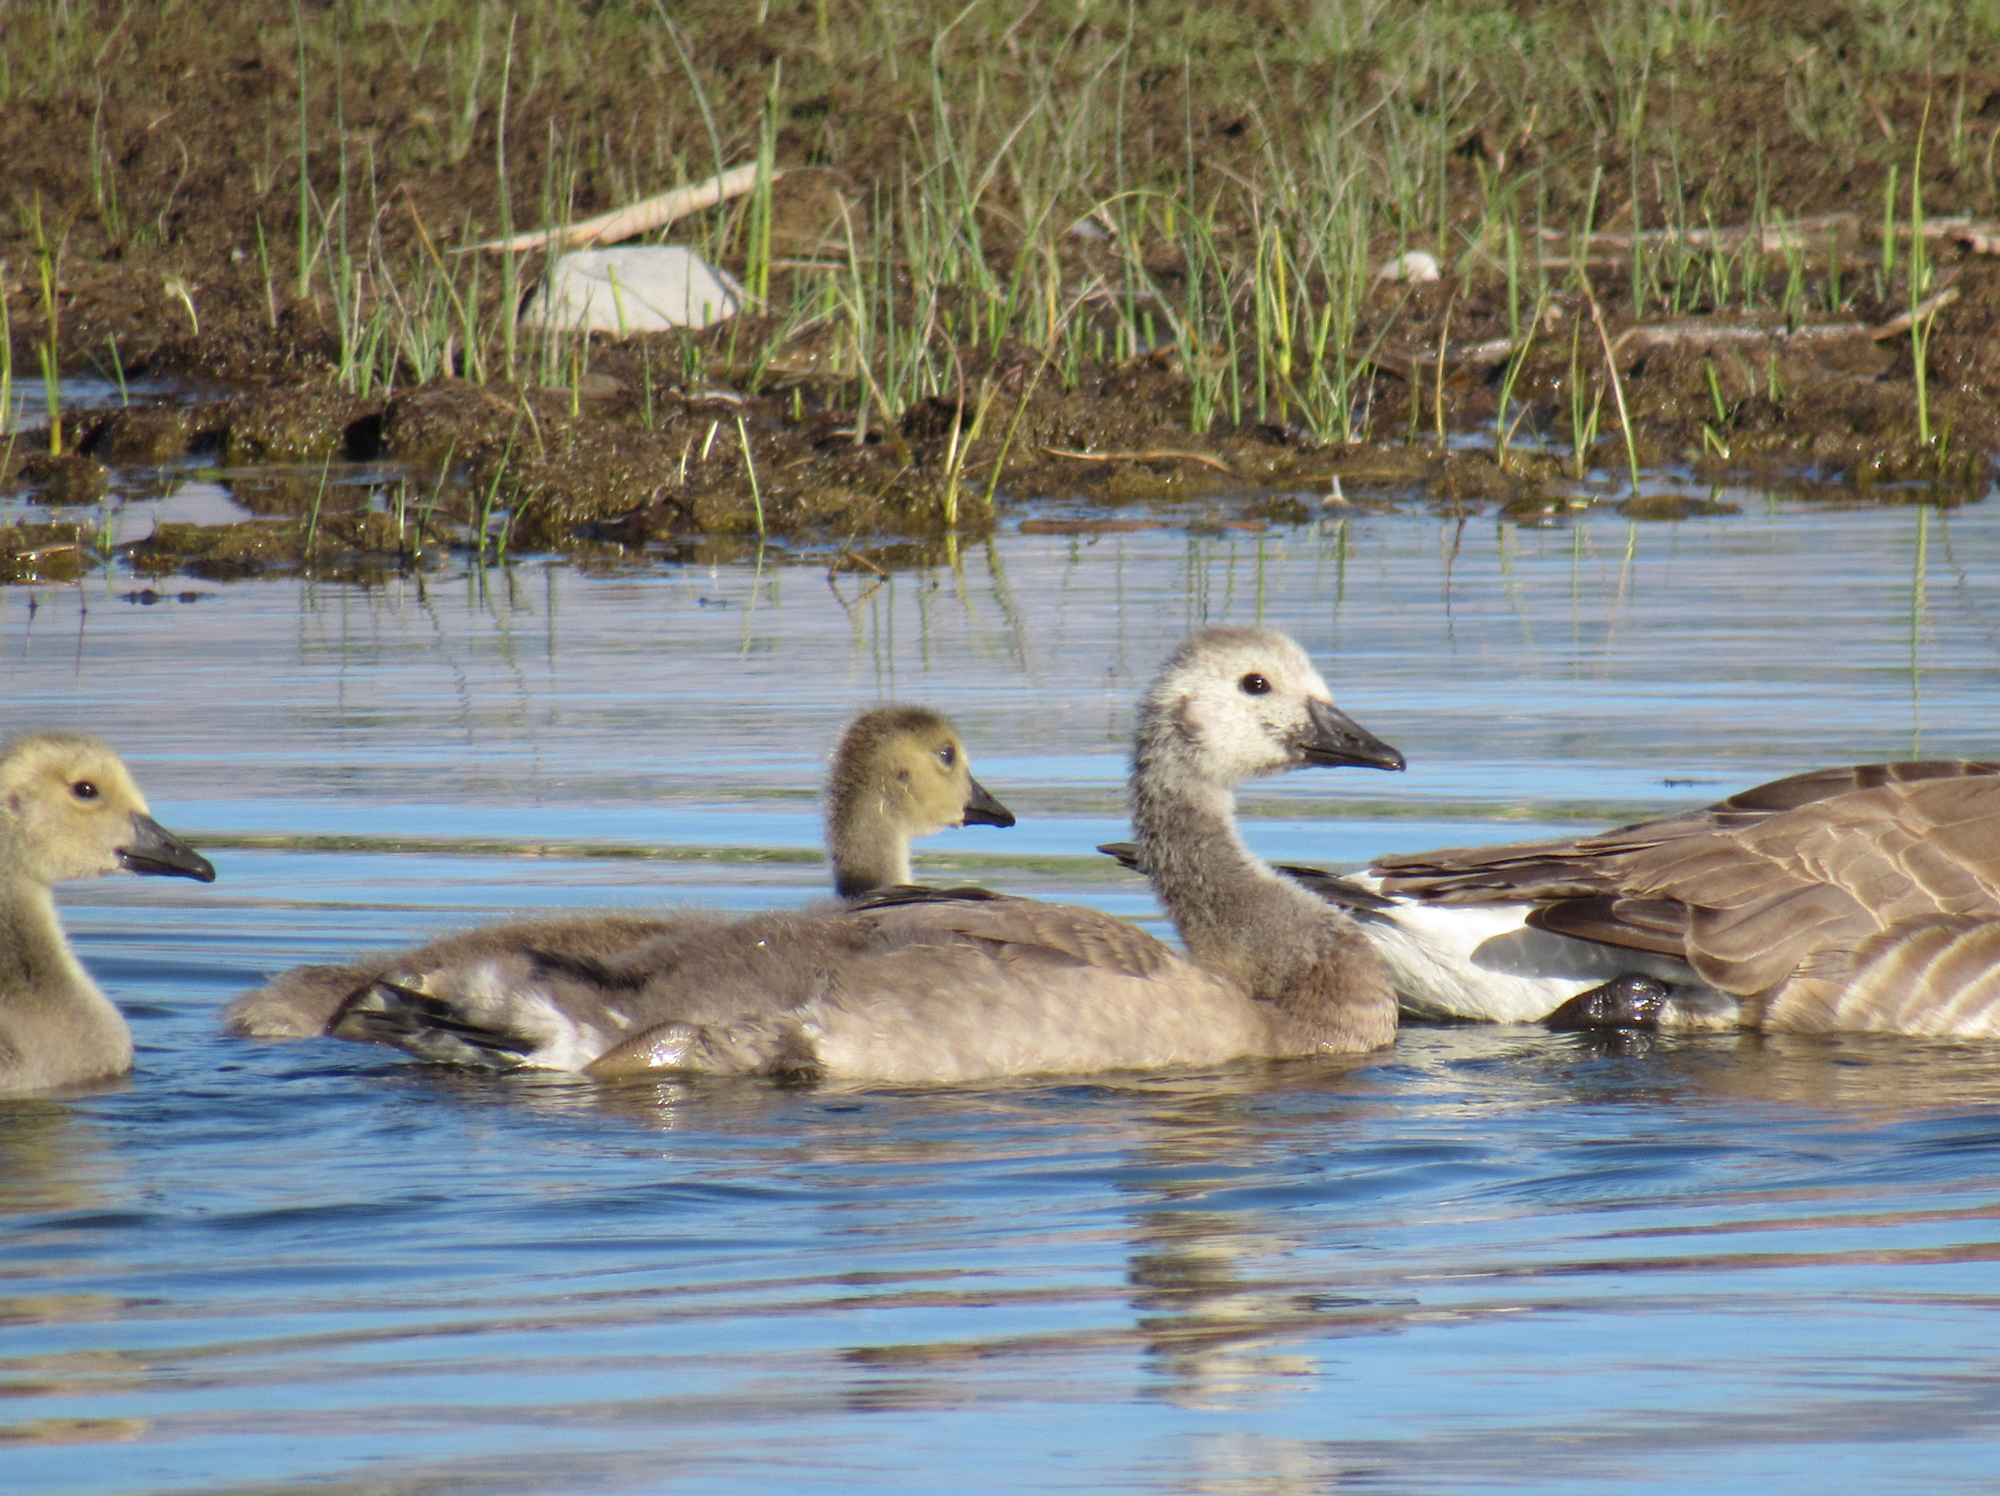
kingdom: Animalia
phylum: Chordata
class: Aves
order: Anseriformes
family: Anatidae
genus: Branta
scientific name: Branta canadensis
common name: Canada goose
